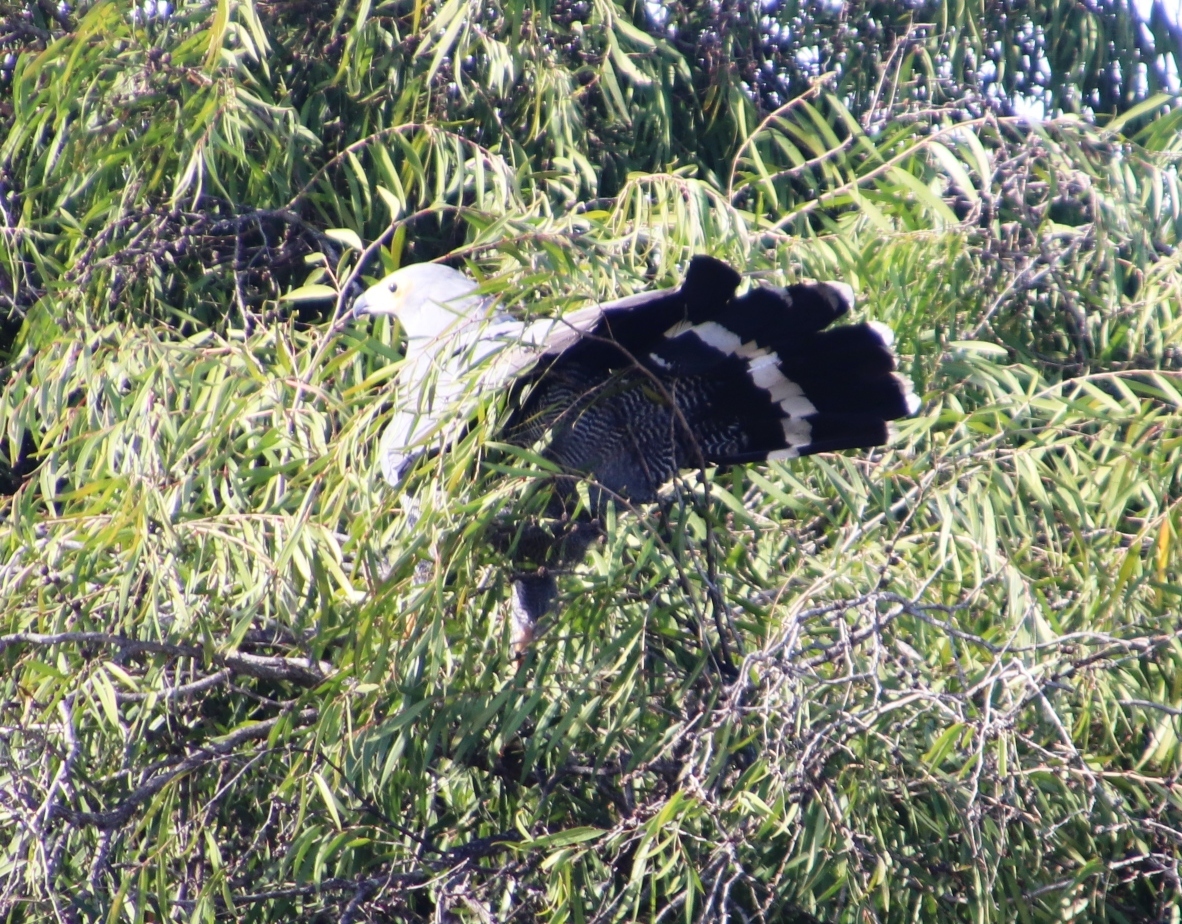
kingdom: Animalia
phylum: Chordata
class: Aves
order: Accipitriformes
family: Accipitridae
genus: Polyboroides
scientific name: Polyboroides typus
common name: African harrier-hawk
